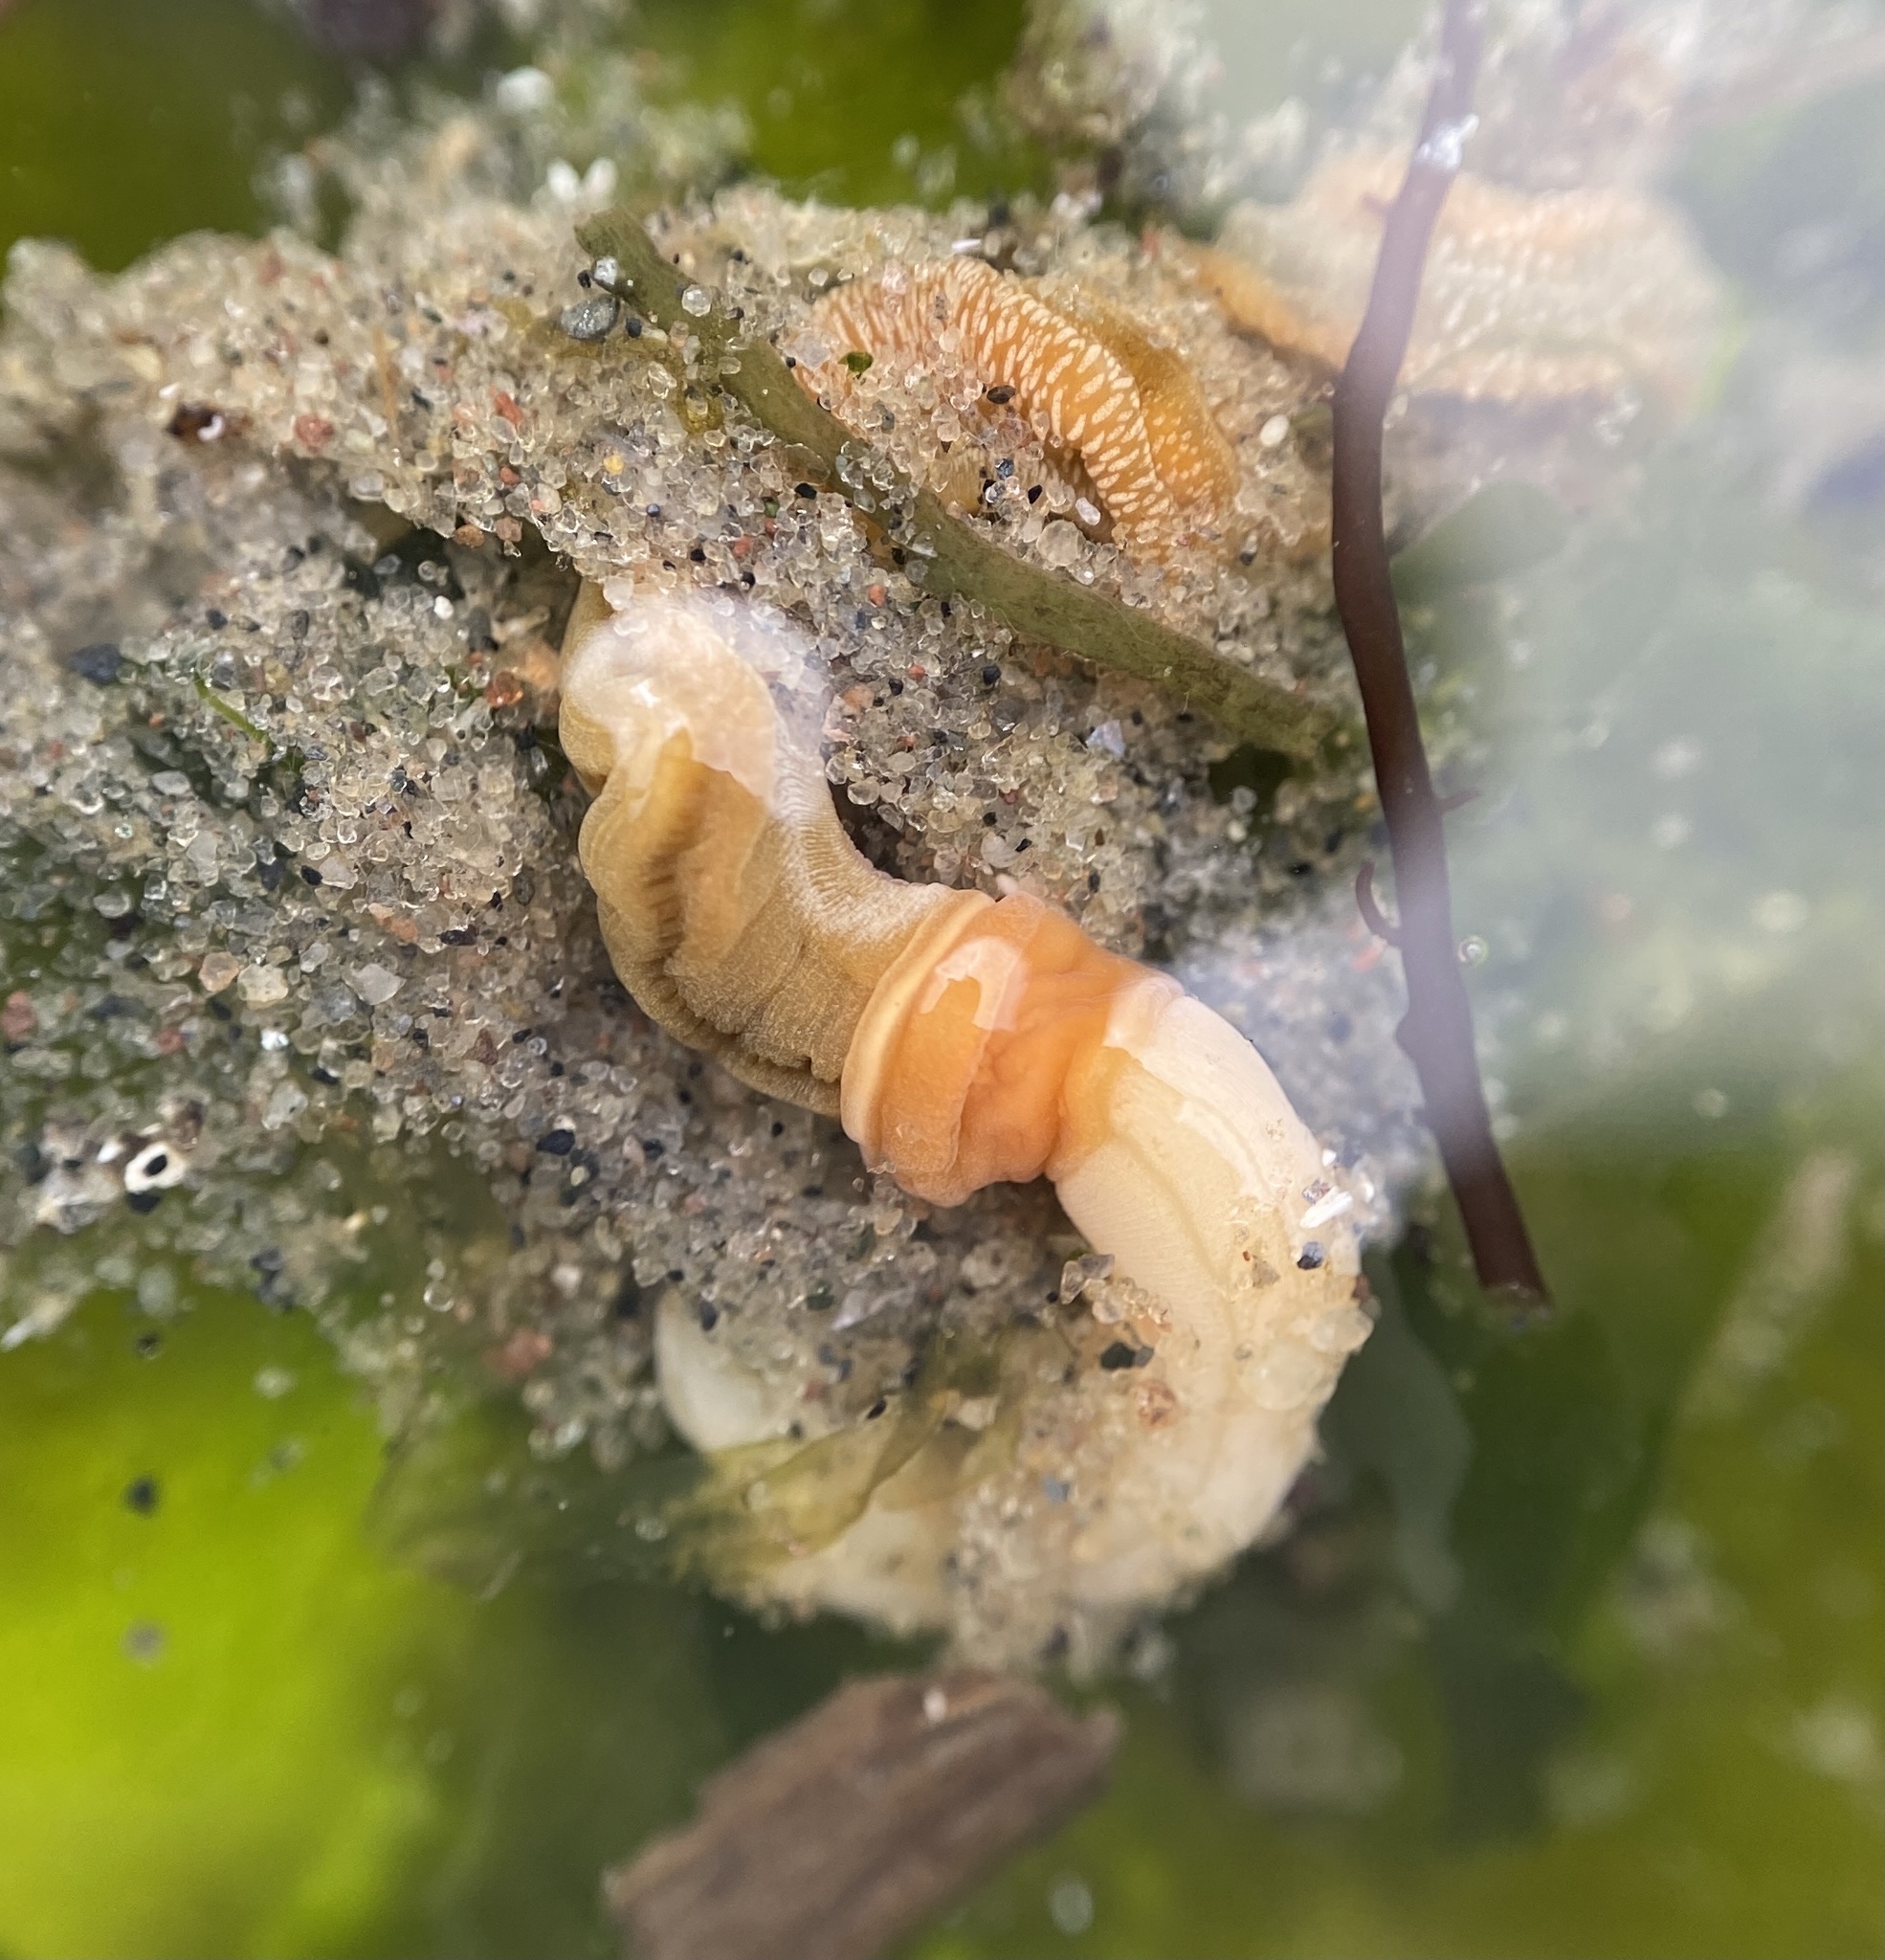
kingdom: Animalia
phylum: Hemichordata
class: Enteropneusta
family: Harrimaniidae
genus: Saccoglossus
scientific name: Saccoglossus kowalevskii
